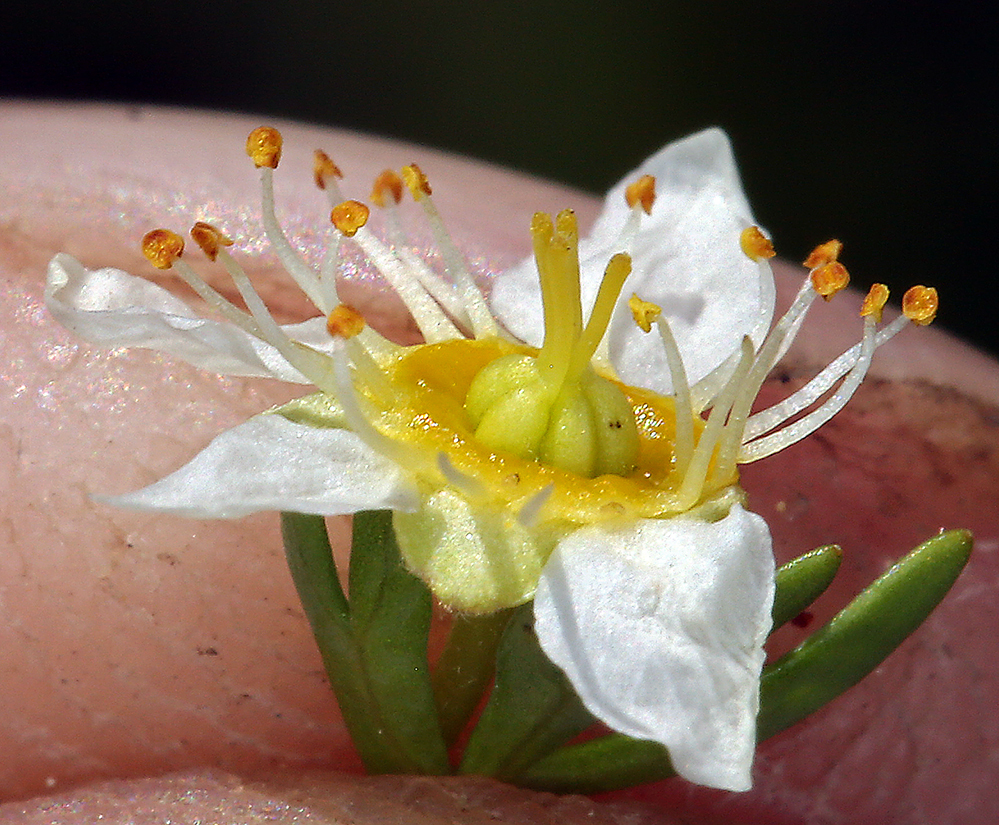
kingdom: Plantae
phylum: Tracheophyta
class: Magnoliopsida
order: Rosales
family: Rosaceae
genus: Luetkea
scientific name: Luetkea pectinata
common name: Partridgefoot
